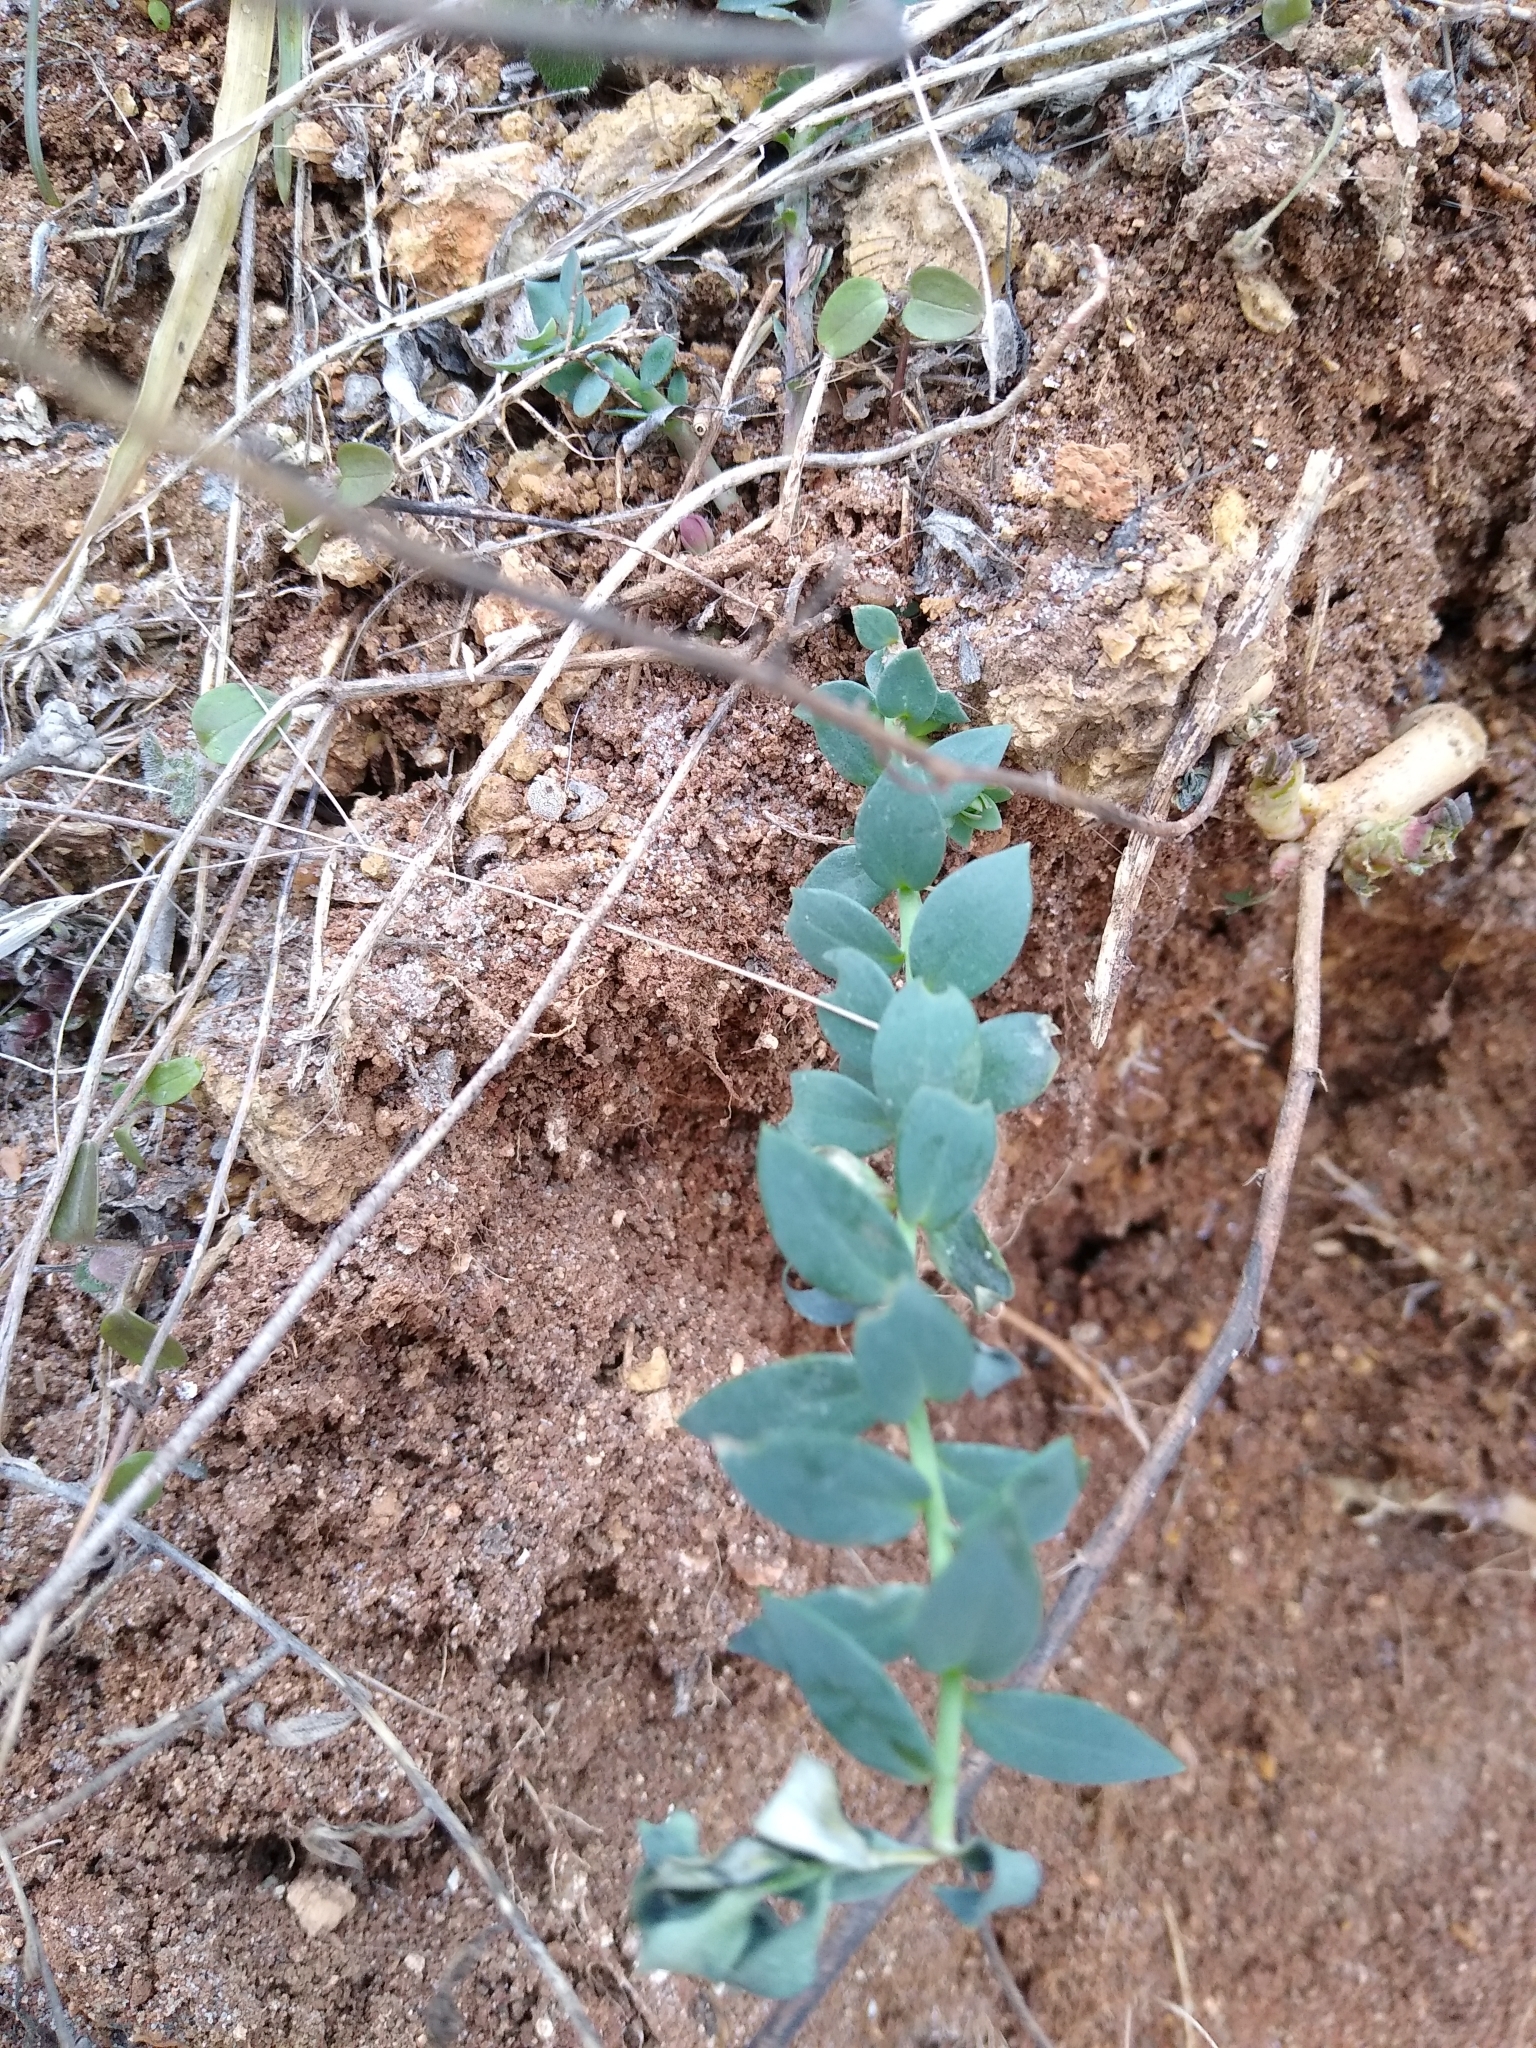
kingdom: Plantae
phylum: Tracheophyta
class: Magnoliopsida
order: Lamiales
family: Plantaginaceae
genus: Linaria
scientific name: Linaria genistifolia
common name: Broomleaf toadflax
